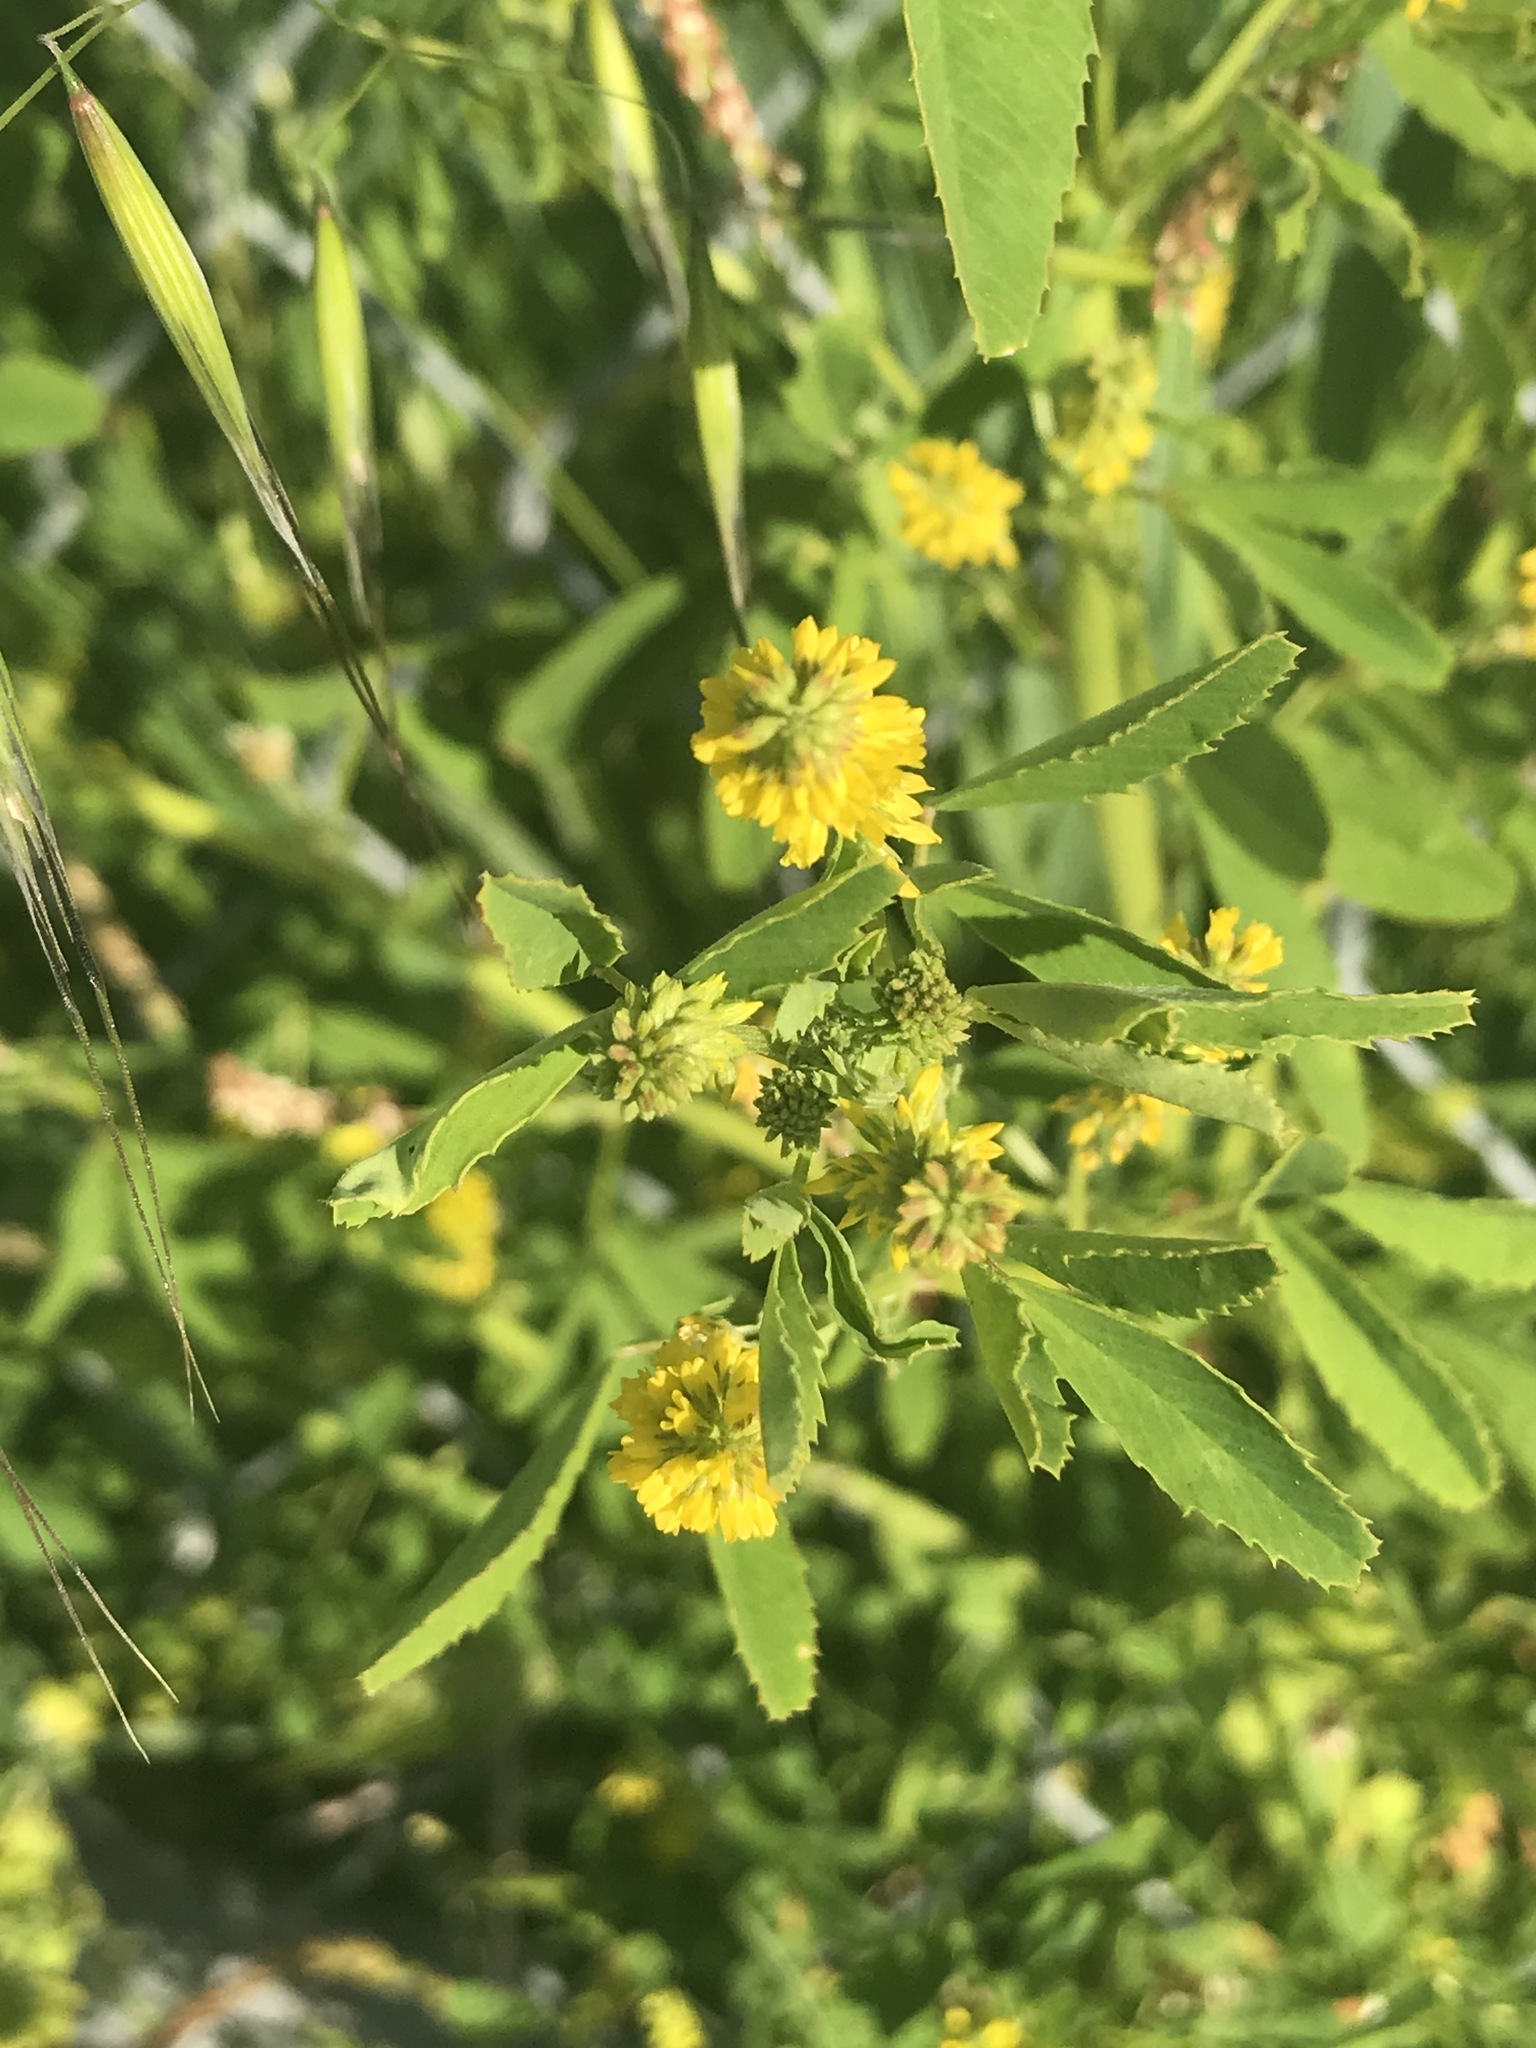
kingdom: Plantae
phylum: Tracheophyta
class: Magnoliopsida
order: Fabales
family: Fabaceae
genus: Melilotus
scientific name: Melilotus indicus
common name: Small melilot
